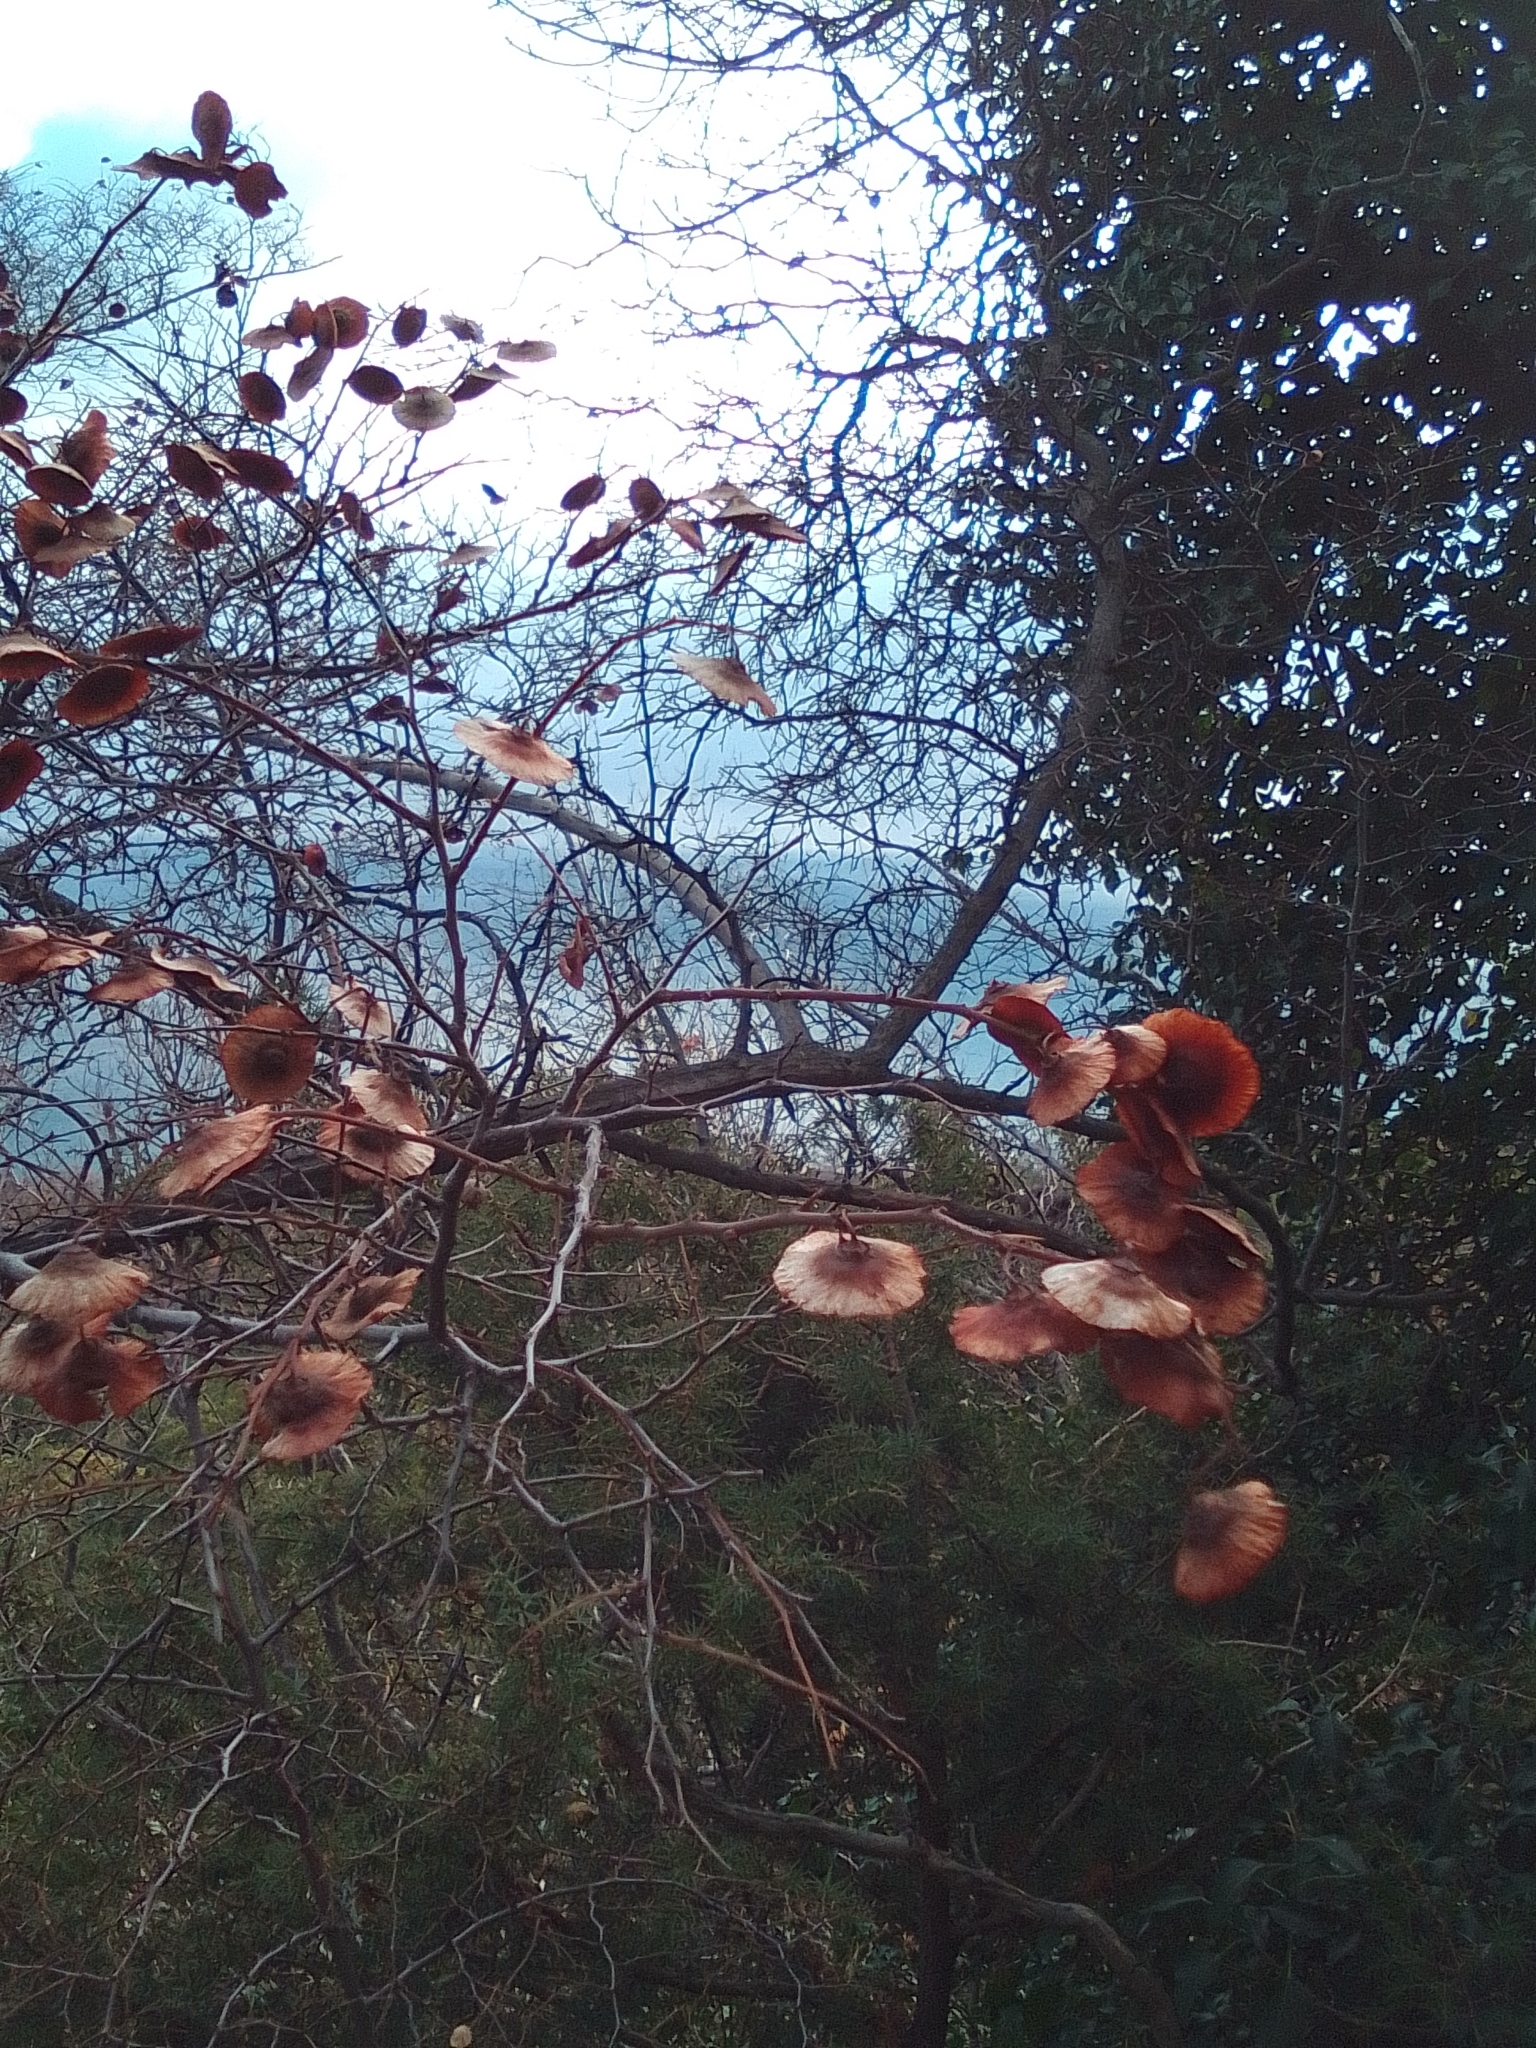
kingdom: Plantae
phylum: Tracheophyta
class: Magnoliopsida
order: Rosales
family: Rhamnaceae
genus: Paliurus
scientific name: Paliurus spina-christi
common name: Jeruselem thorn
